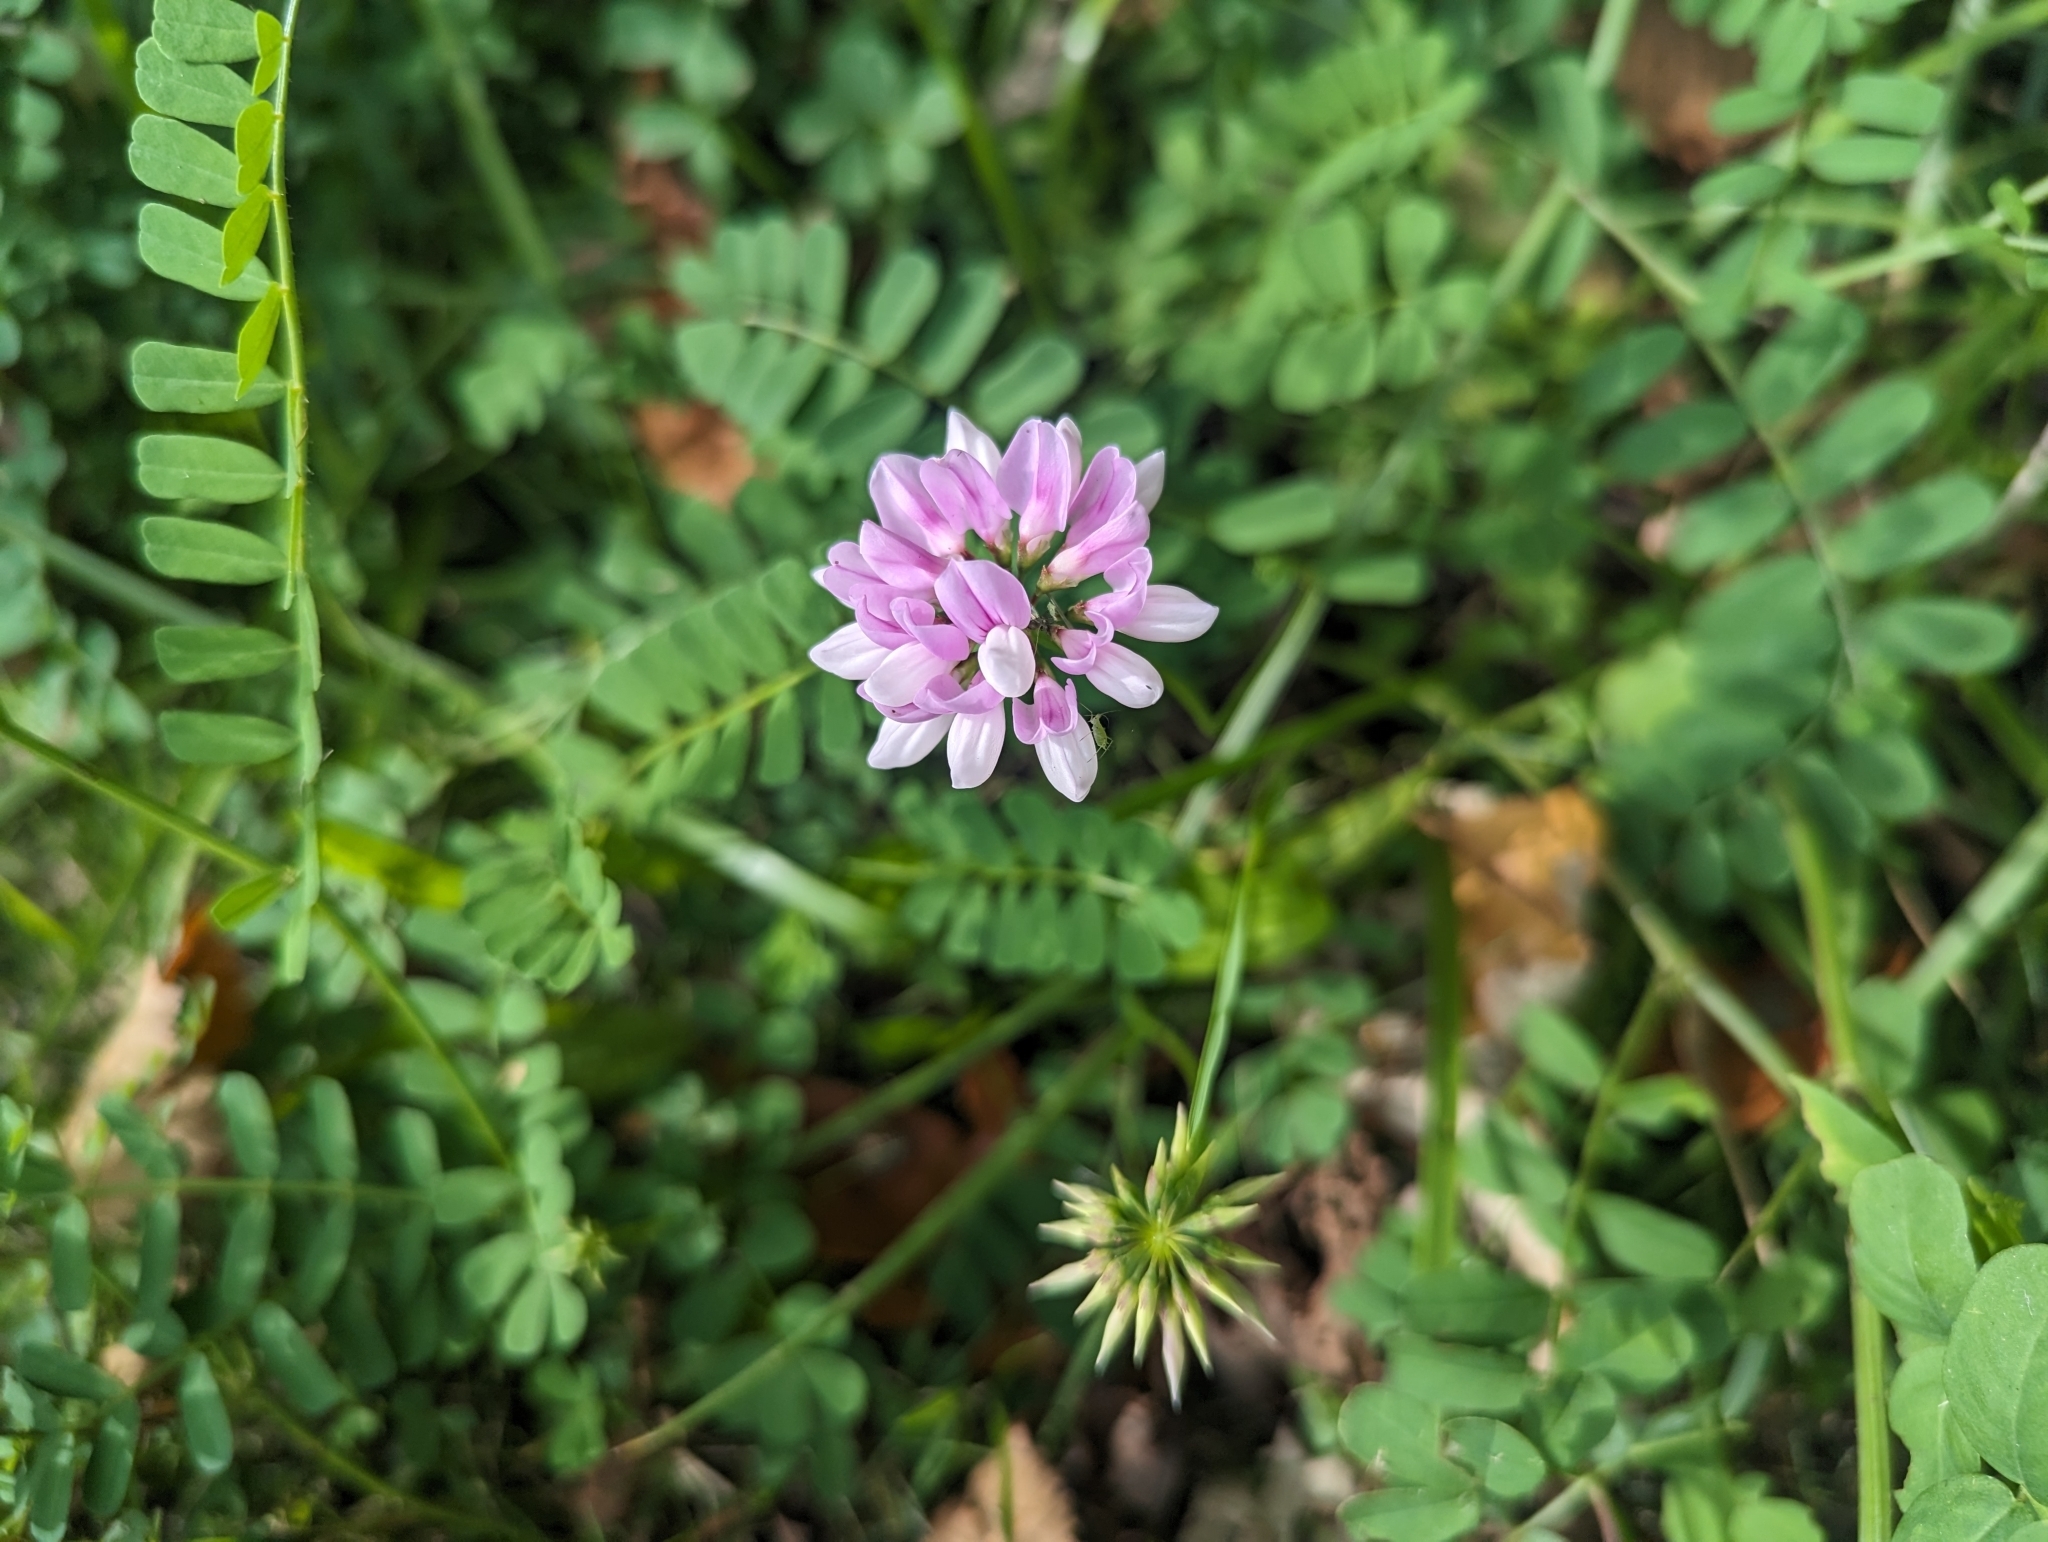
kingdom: Plantae
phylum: Tracheophyta
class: Magnoliopsida
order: Fabales
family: Fabaceae
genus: Coronilla
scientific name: Coronilla varia
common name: Crownvetch
